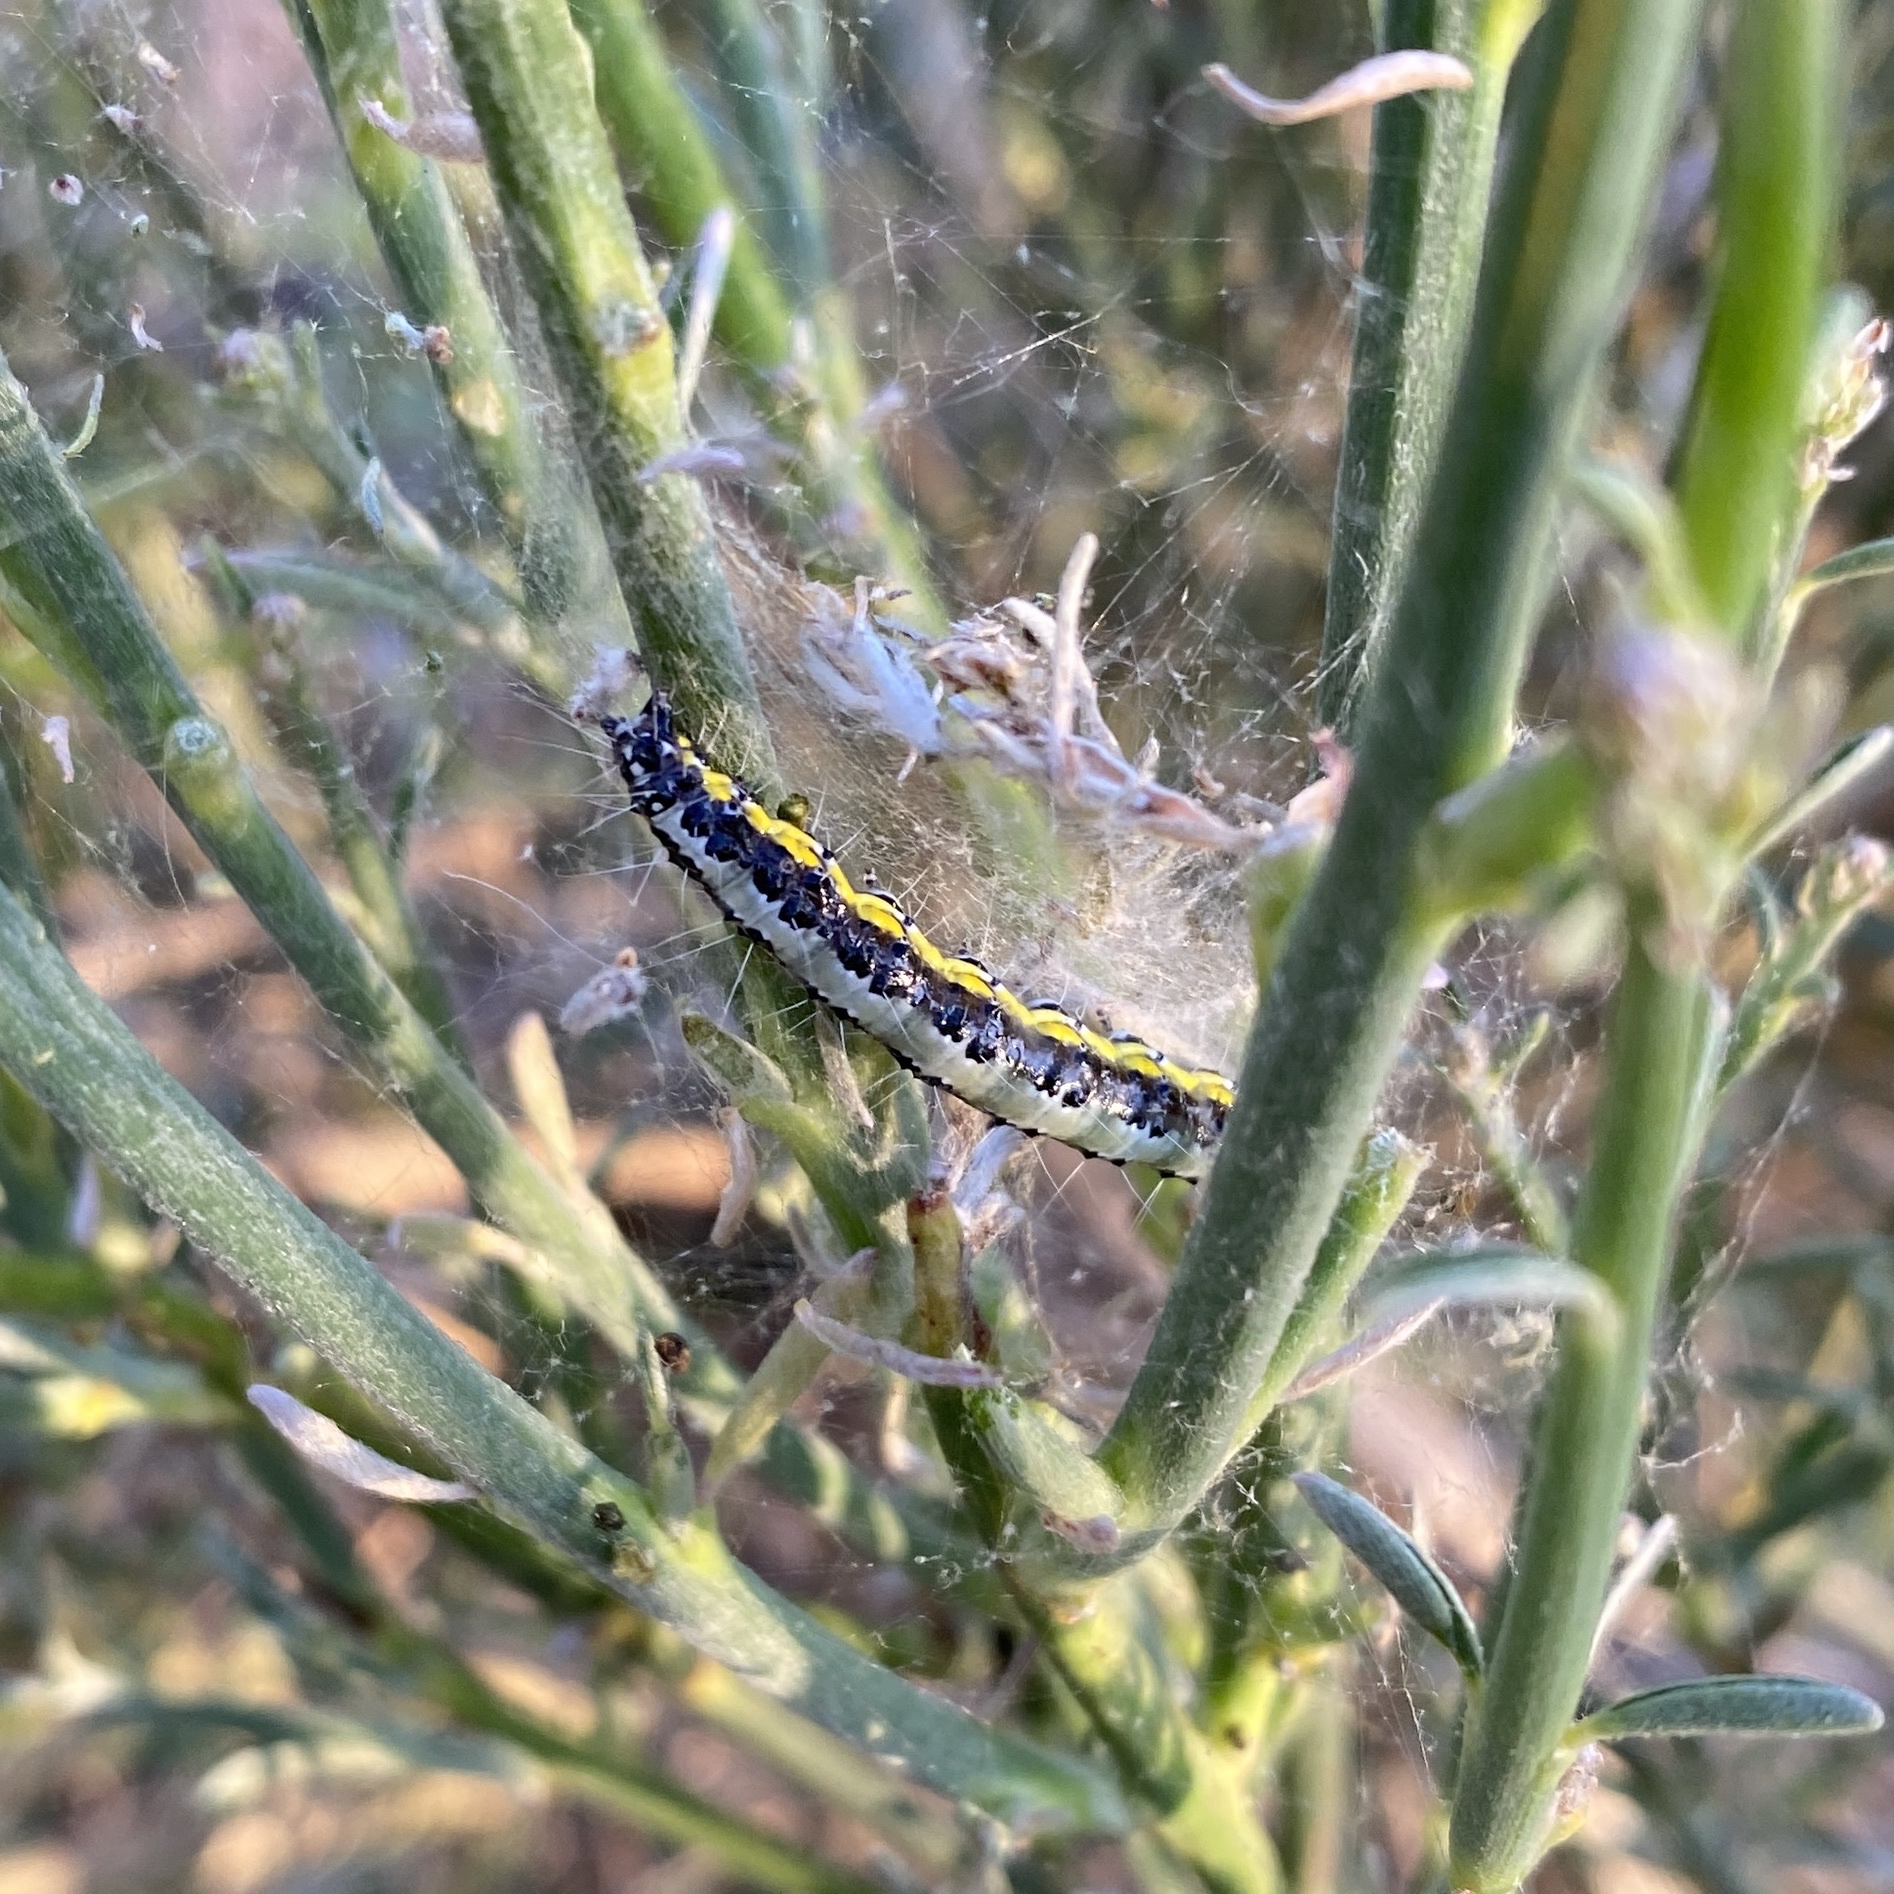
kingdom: Animalia
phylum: Arthropoda
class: Insecta
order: Lepidoptera
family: Crambidae
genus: Uresiphita
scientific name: Uresiphita gilvata
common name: Yellow-underwing pearl
